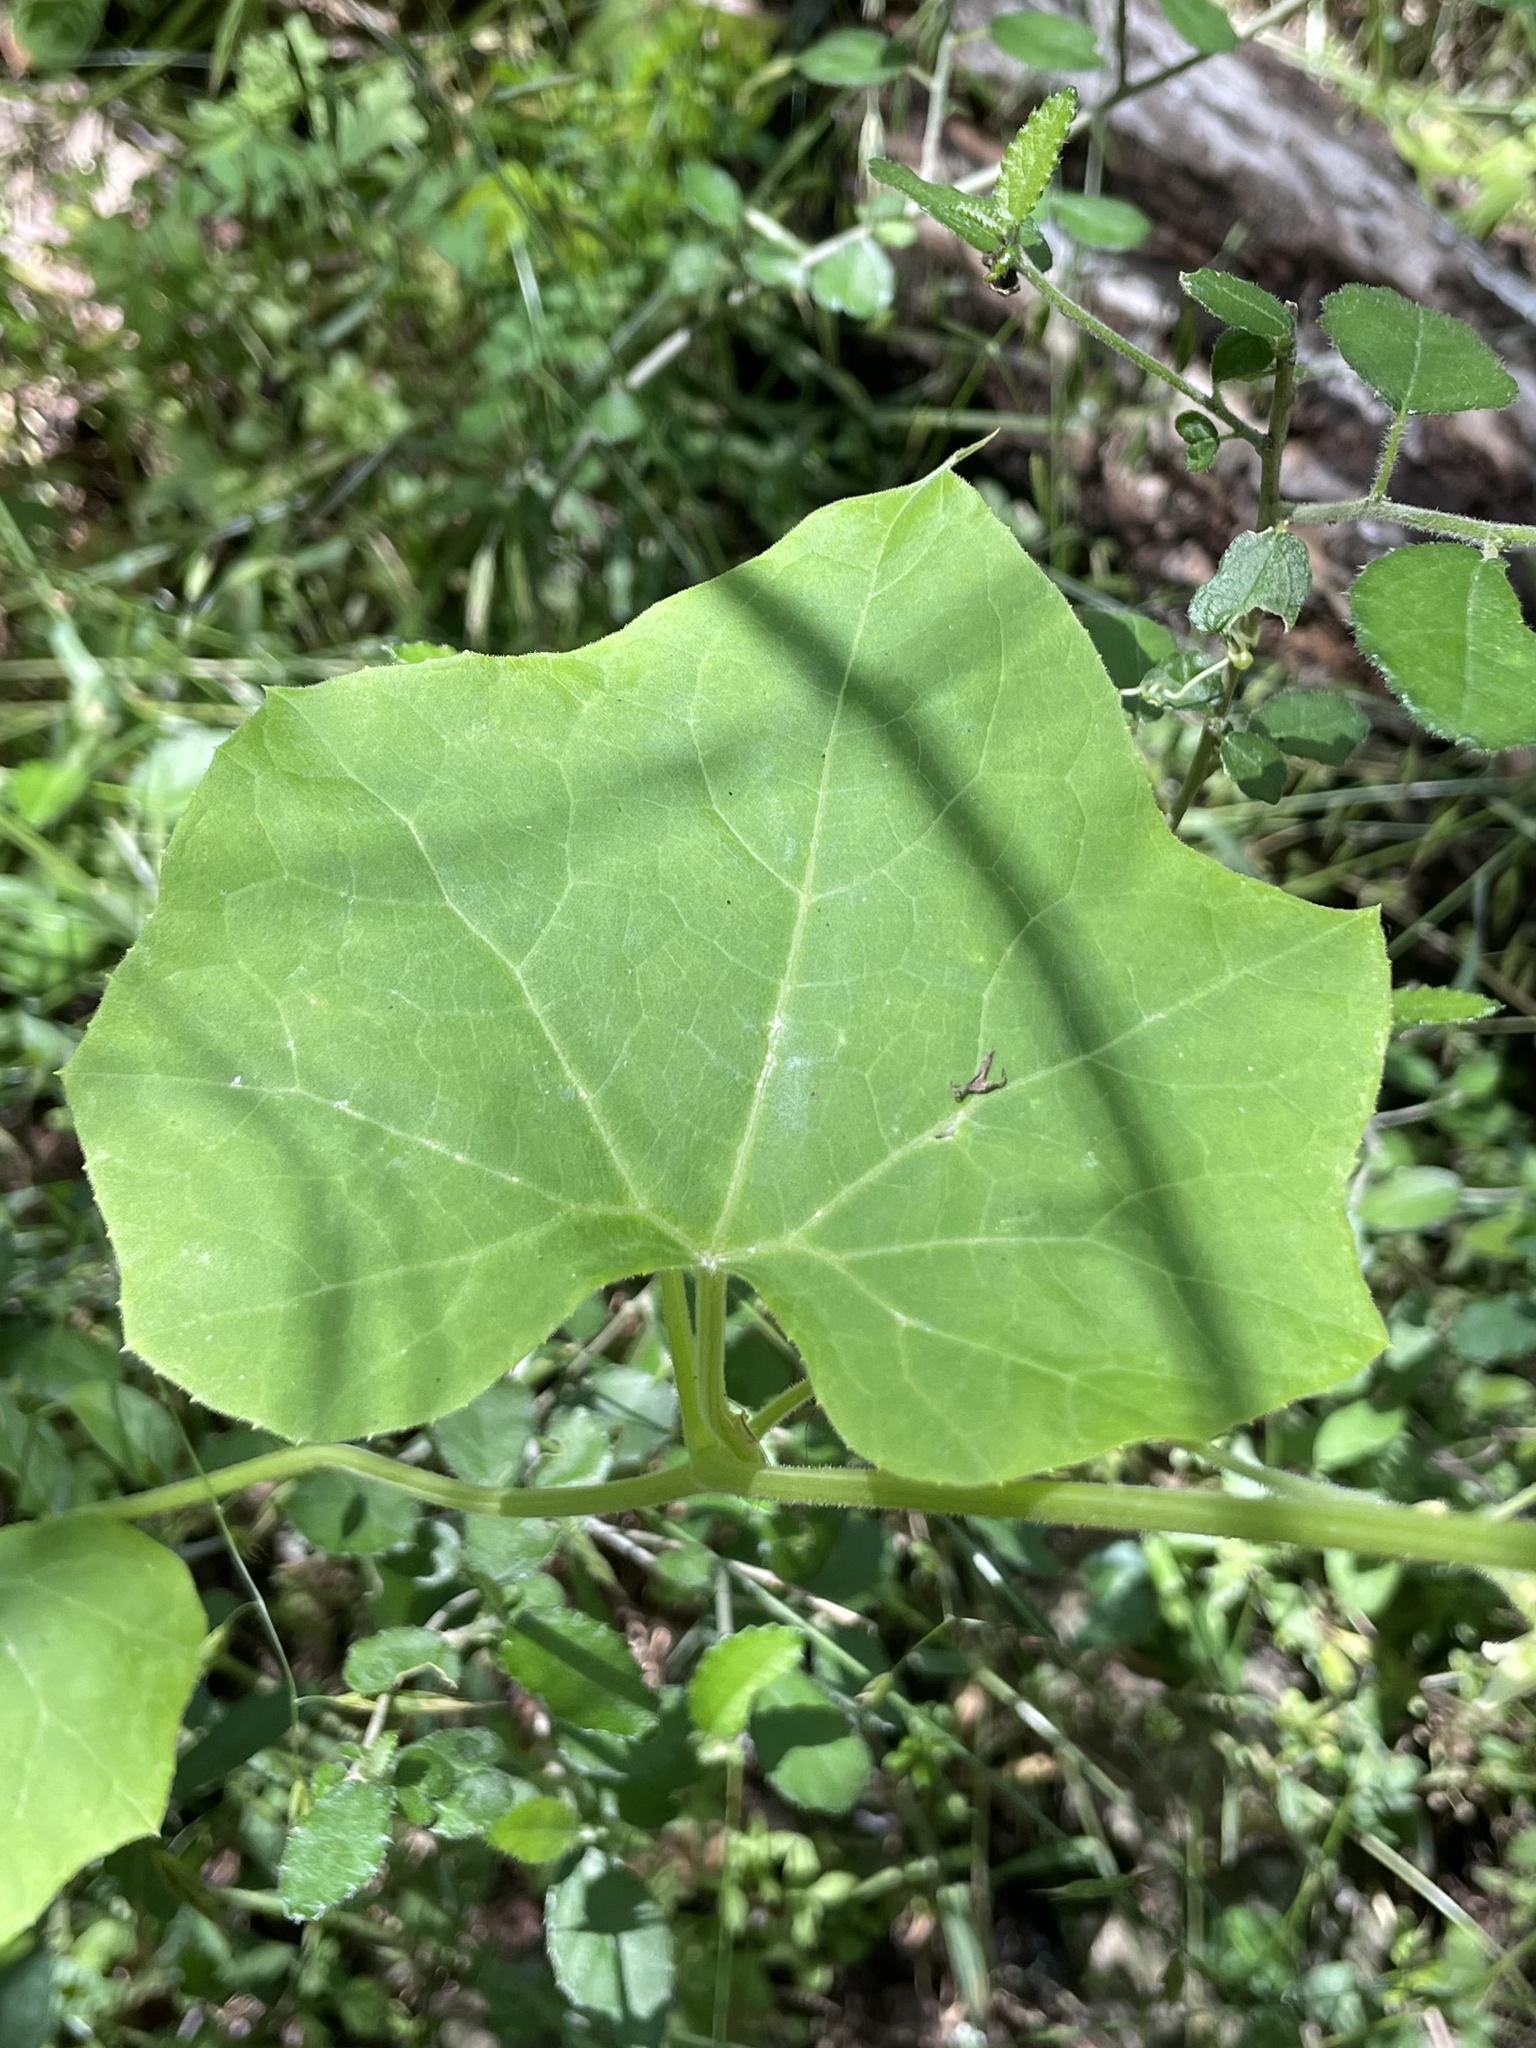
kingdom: Plantae
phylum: Tracheophyta
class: Magnoliopsida
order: Cucurbitales
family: Cucurbitaceae
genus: Sicyos
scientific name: Sicyos angulatus
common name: Angled burr cucumber
